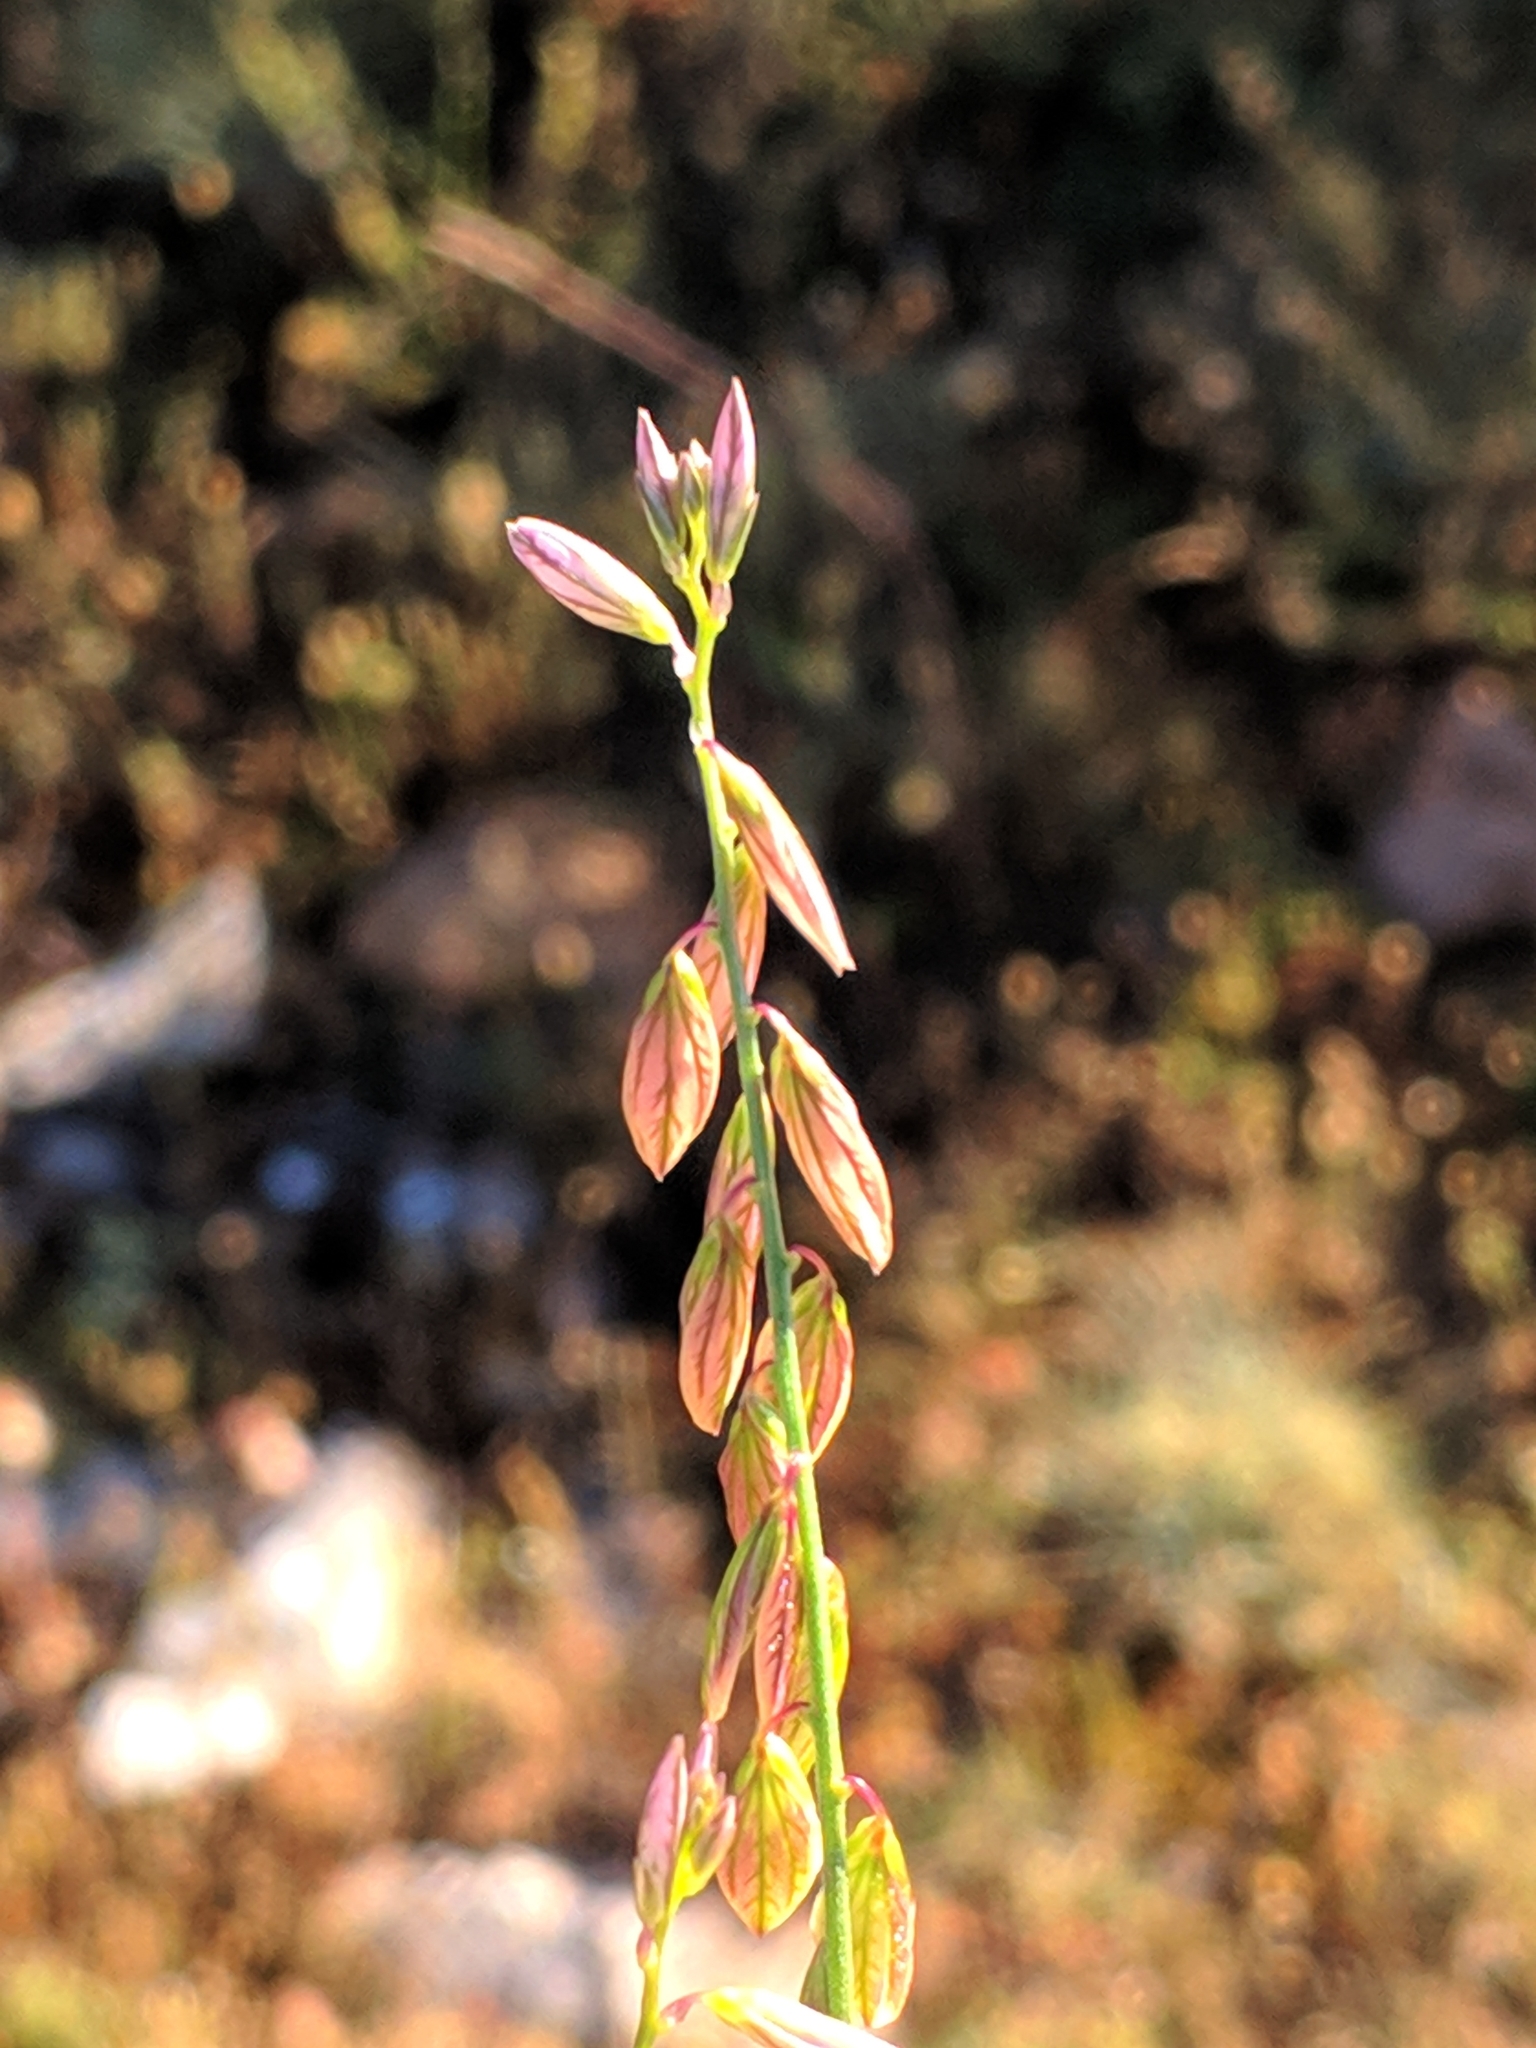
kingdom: Plantae
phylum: Tracheophyta
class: Magnoliopsida
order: Fabales
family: Polygalaceae
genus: Polygala
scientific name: Polygala monspeliaca
